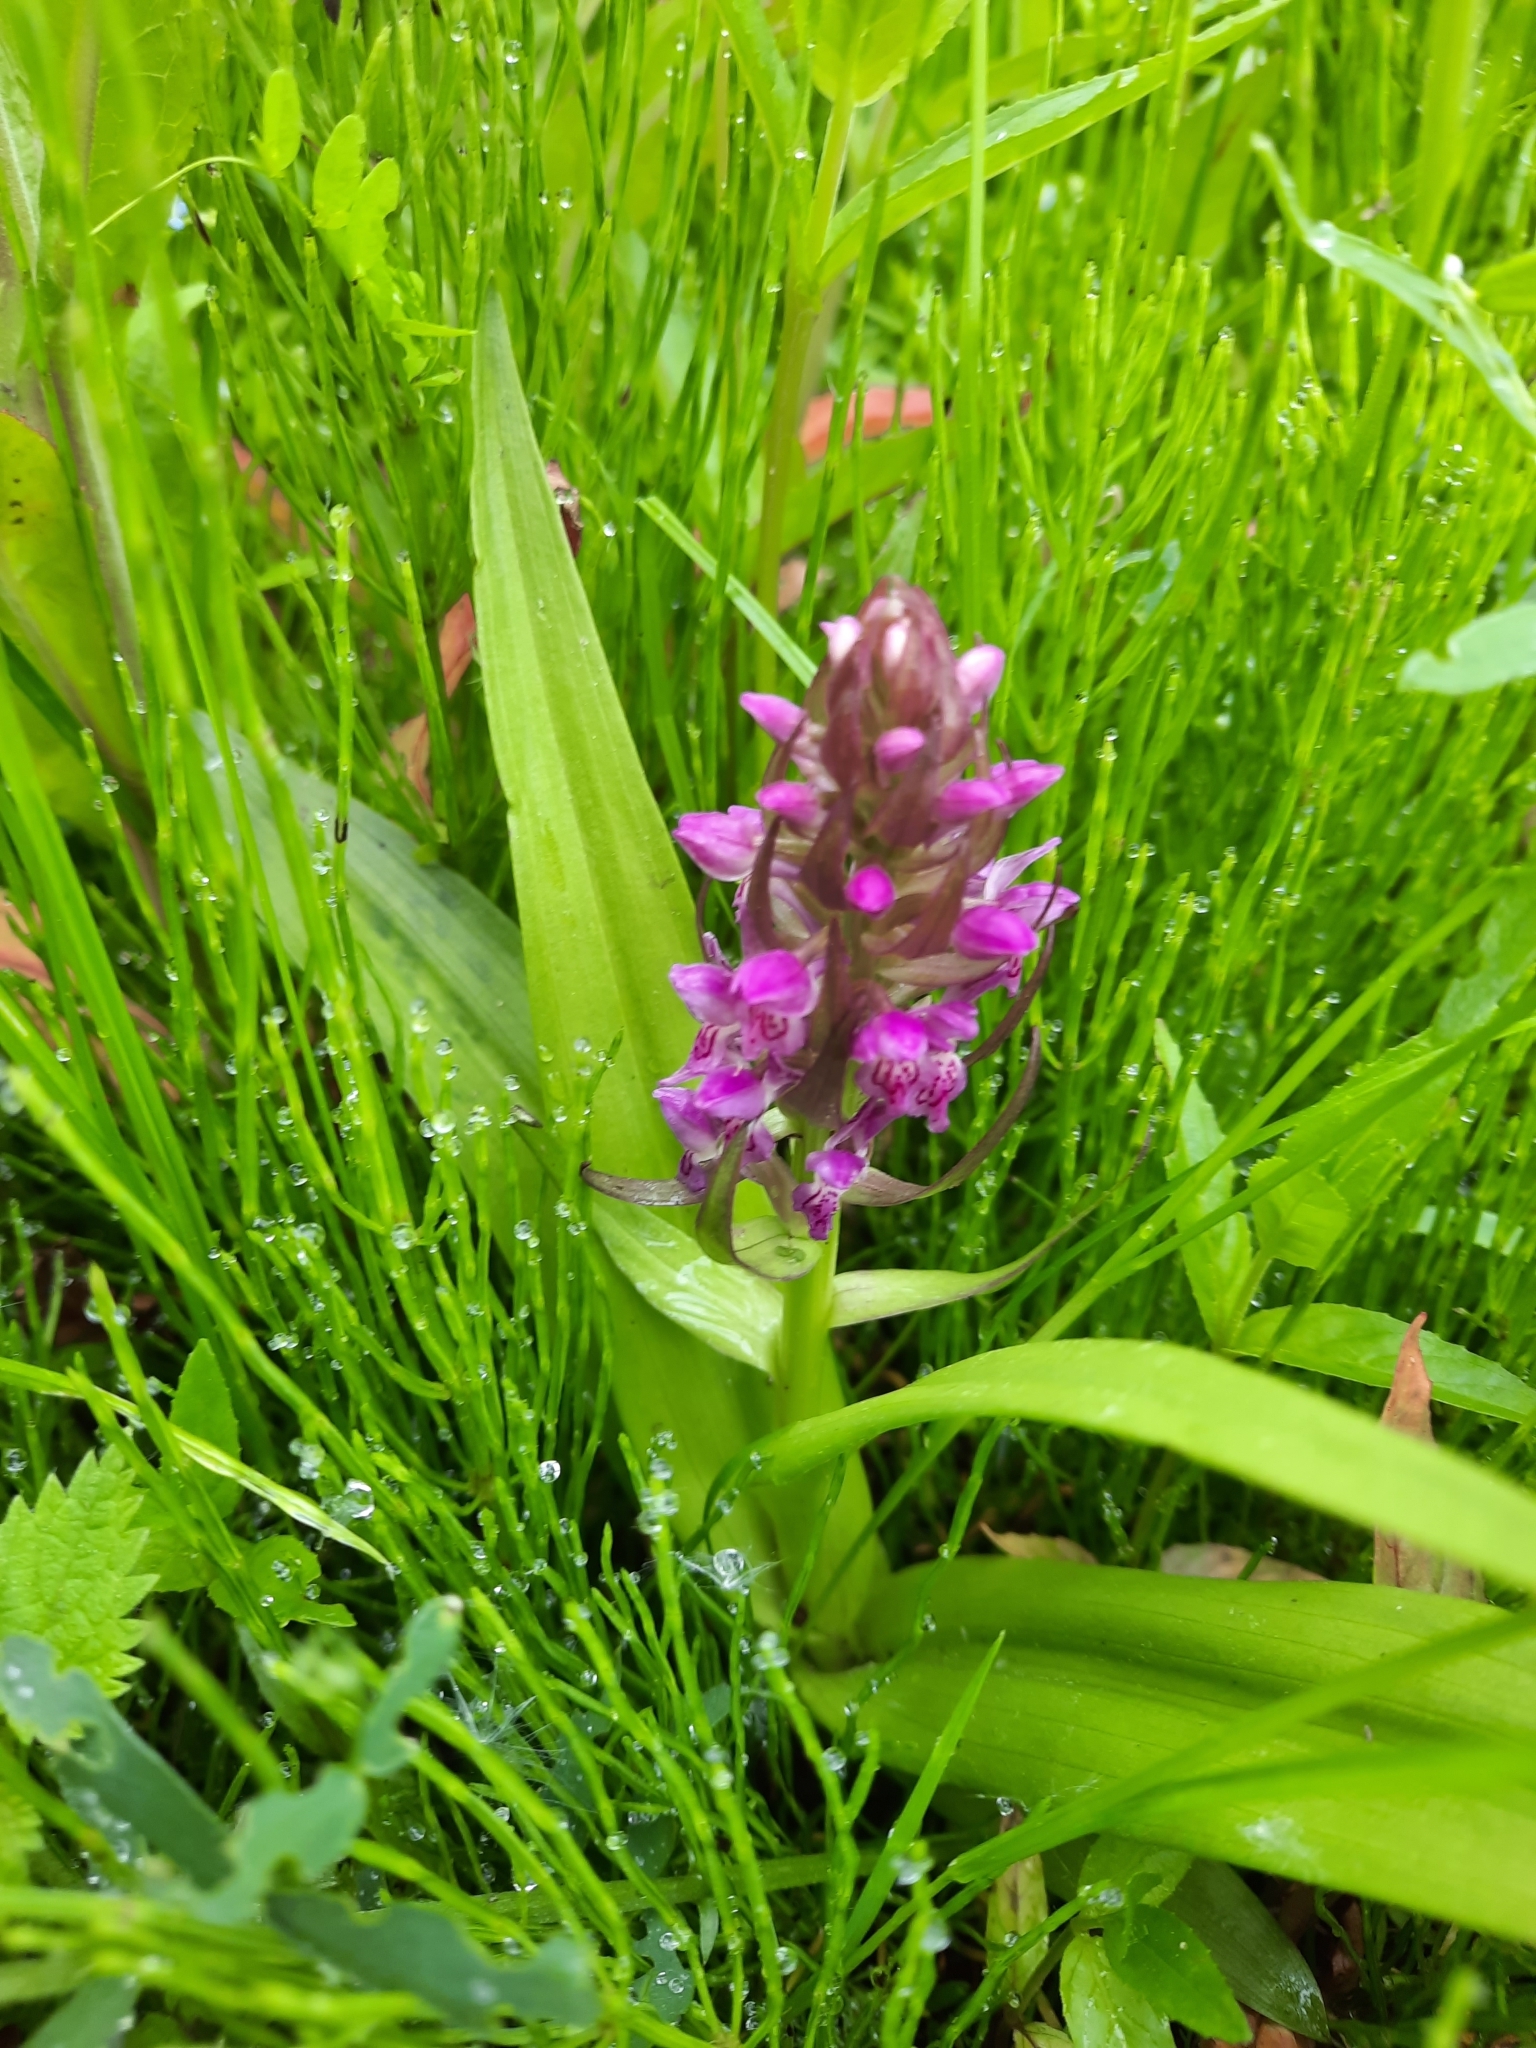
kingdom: Plantae
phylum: Tracheophyta
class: Liliopsida
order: Asparagales
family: Orchidaceae
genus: Dactylorhiza
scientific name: Dactylorhiza incarnata
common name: Early marsh-orchid
